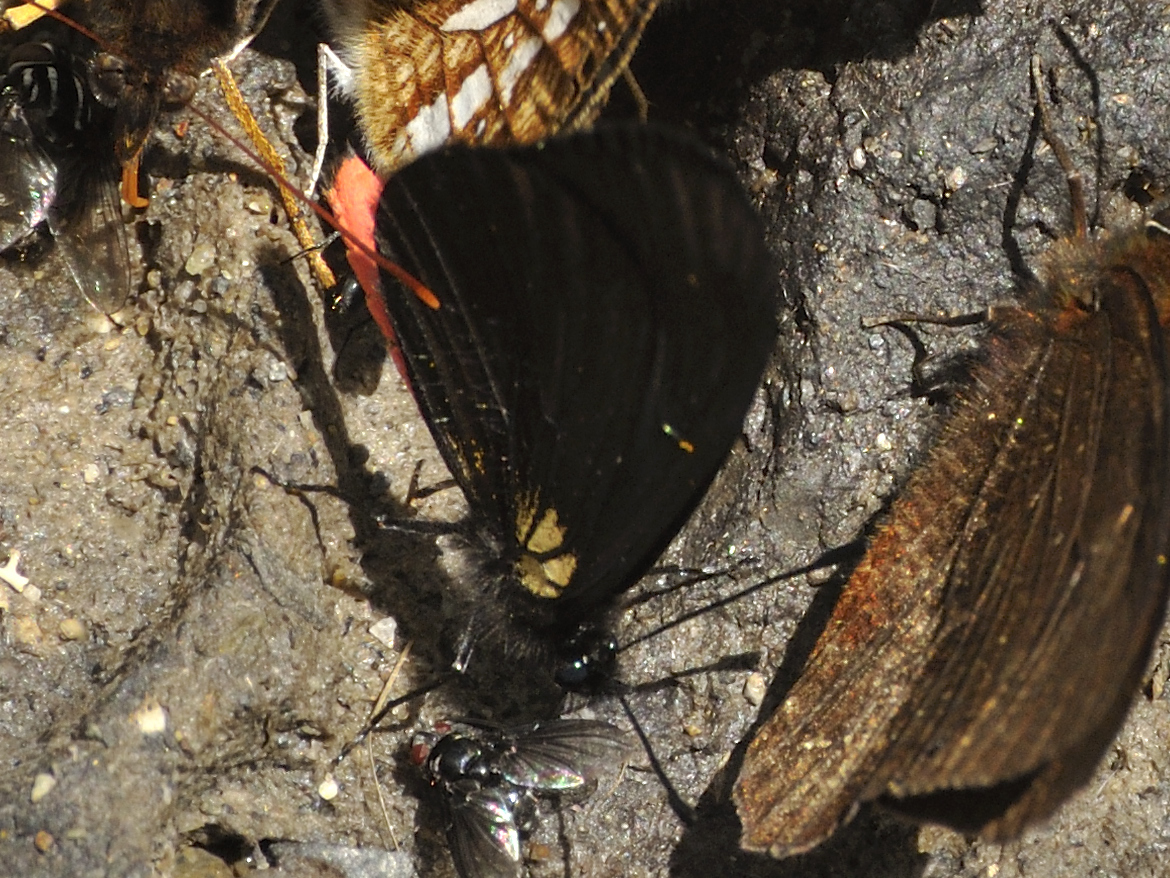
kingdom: Animalia
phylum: Arthropoda
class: Insecta
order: Lepidoptera
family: Nymphalidae
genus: Actinote
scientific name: Actinote neleus
